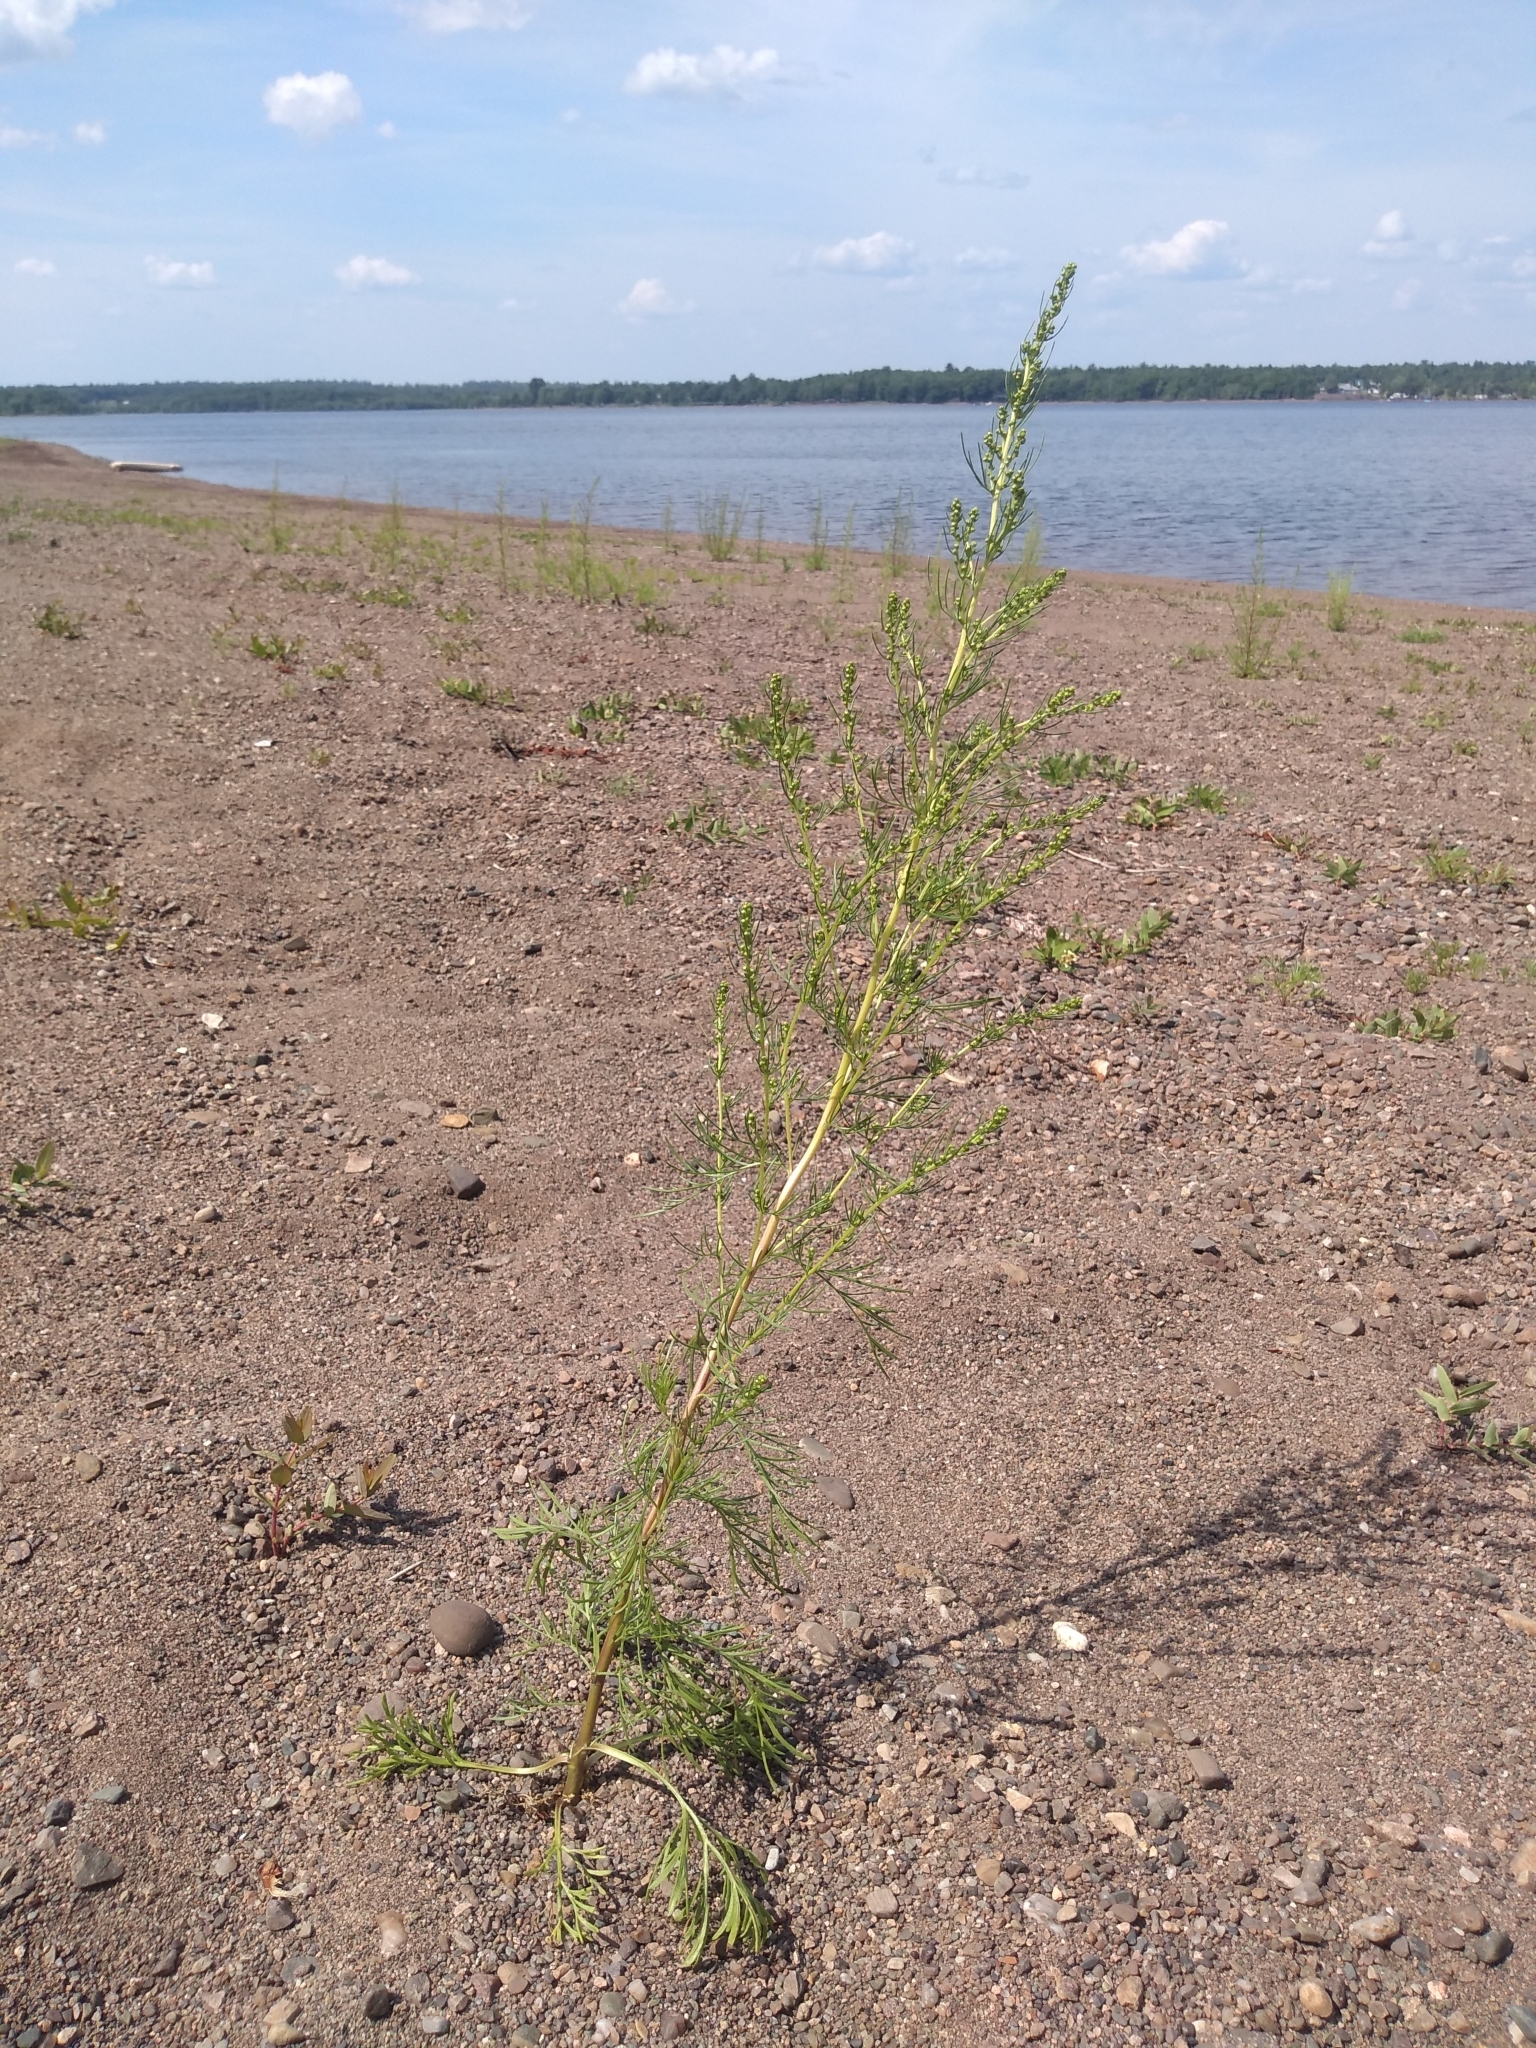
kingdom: Plantae
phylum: Tracheophyta
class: Magnoliopsida
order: Asterales
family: Asteraceae
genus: Artemisia
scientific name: Artemisia campestris
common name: Field wormwood
